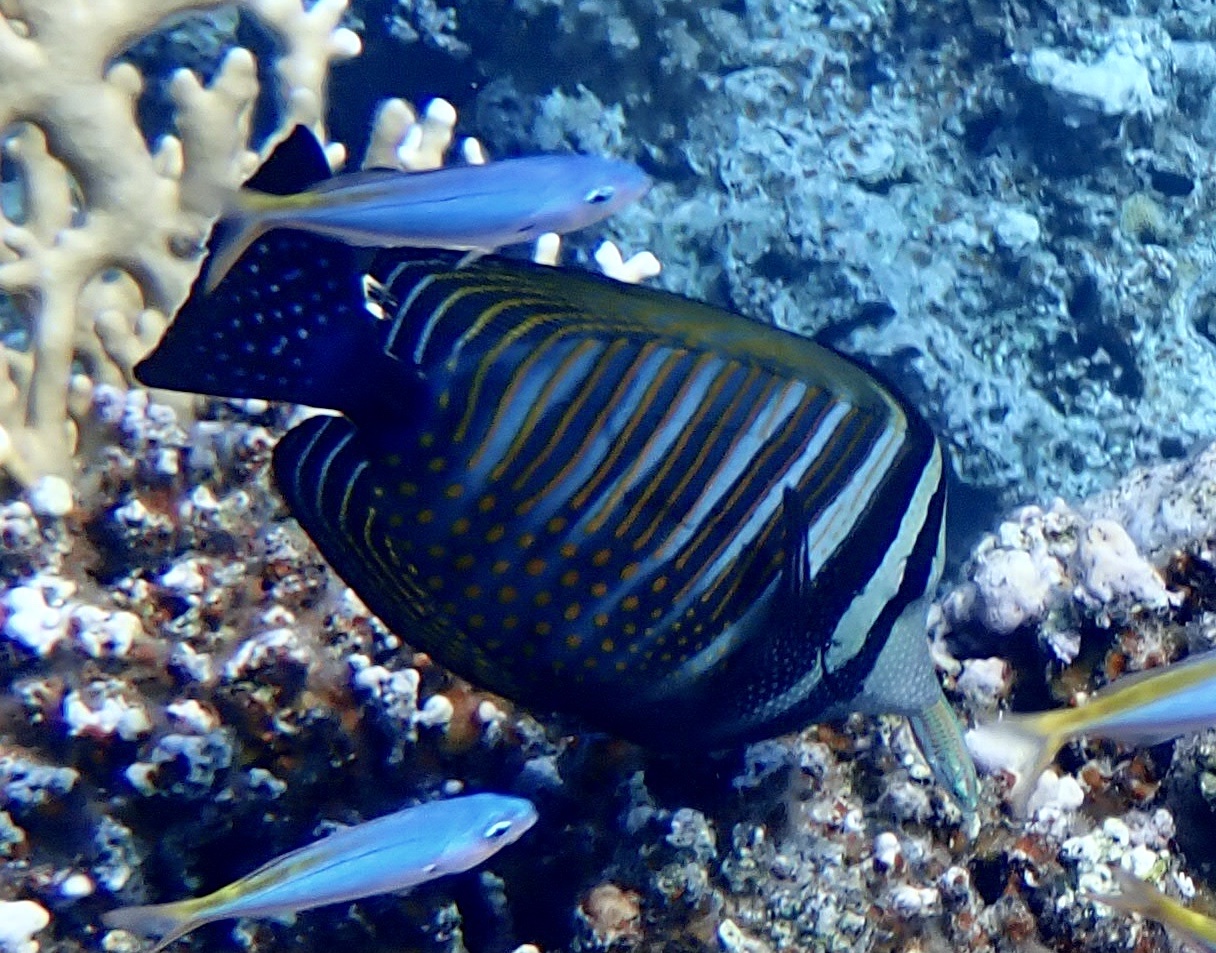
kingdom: Animalia
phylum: Chordata
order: Perciformes
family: Acanthuridae
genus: Zebrasoma
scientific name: Zebrasoma desjardinii
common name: Desjardin's sailfin tang
